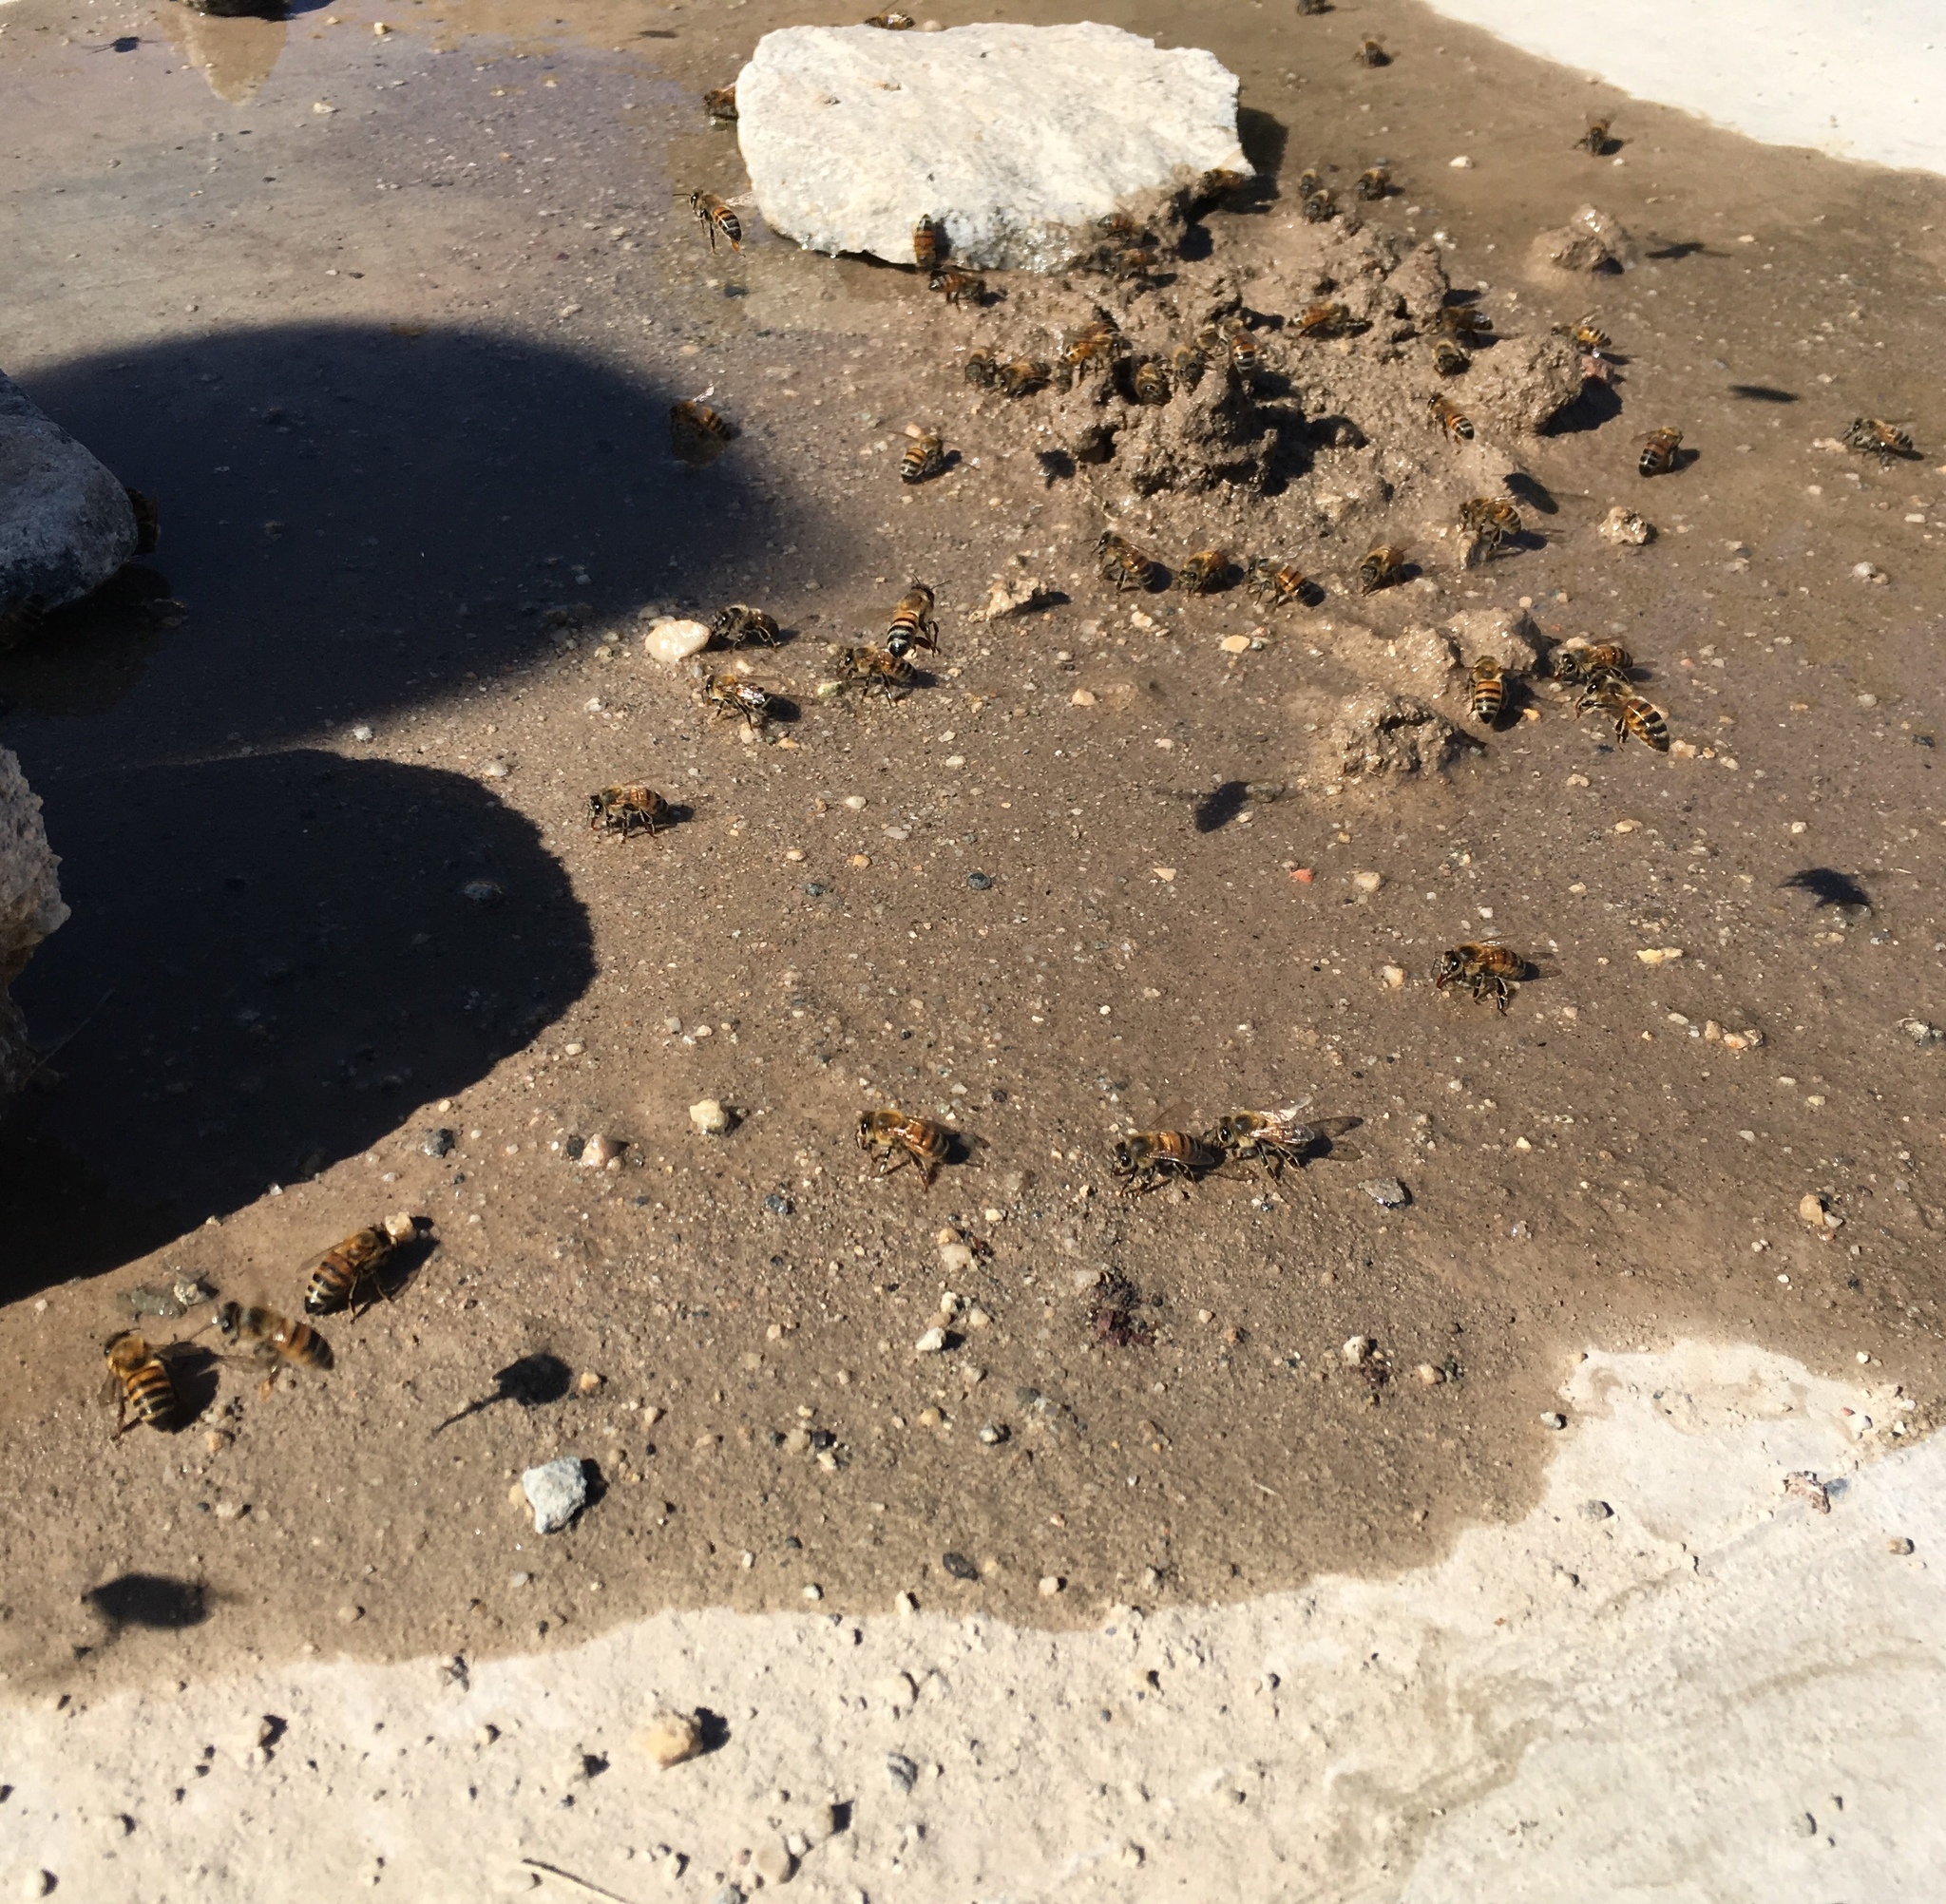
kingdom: Animalia
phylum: Arthropoda
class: Insecta
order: Hymenoptera
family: Apidae
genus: Apis
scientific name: Apis mellifera
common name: Honey bee
